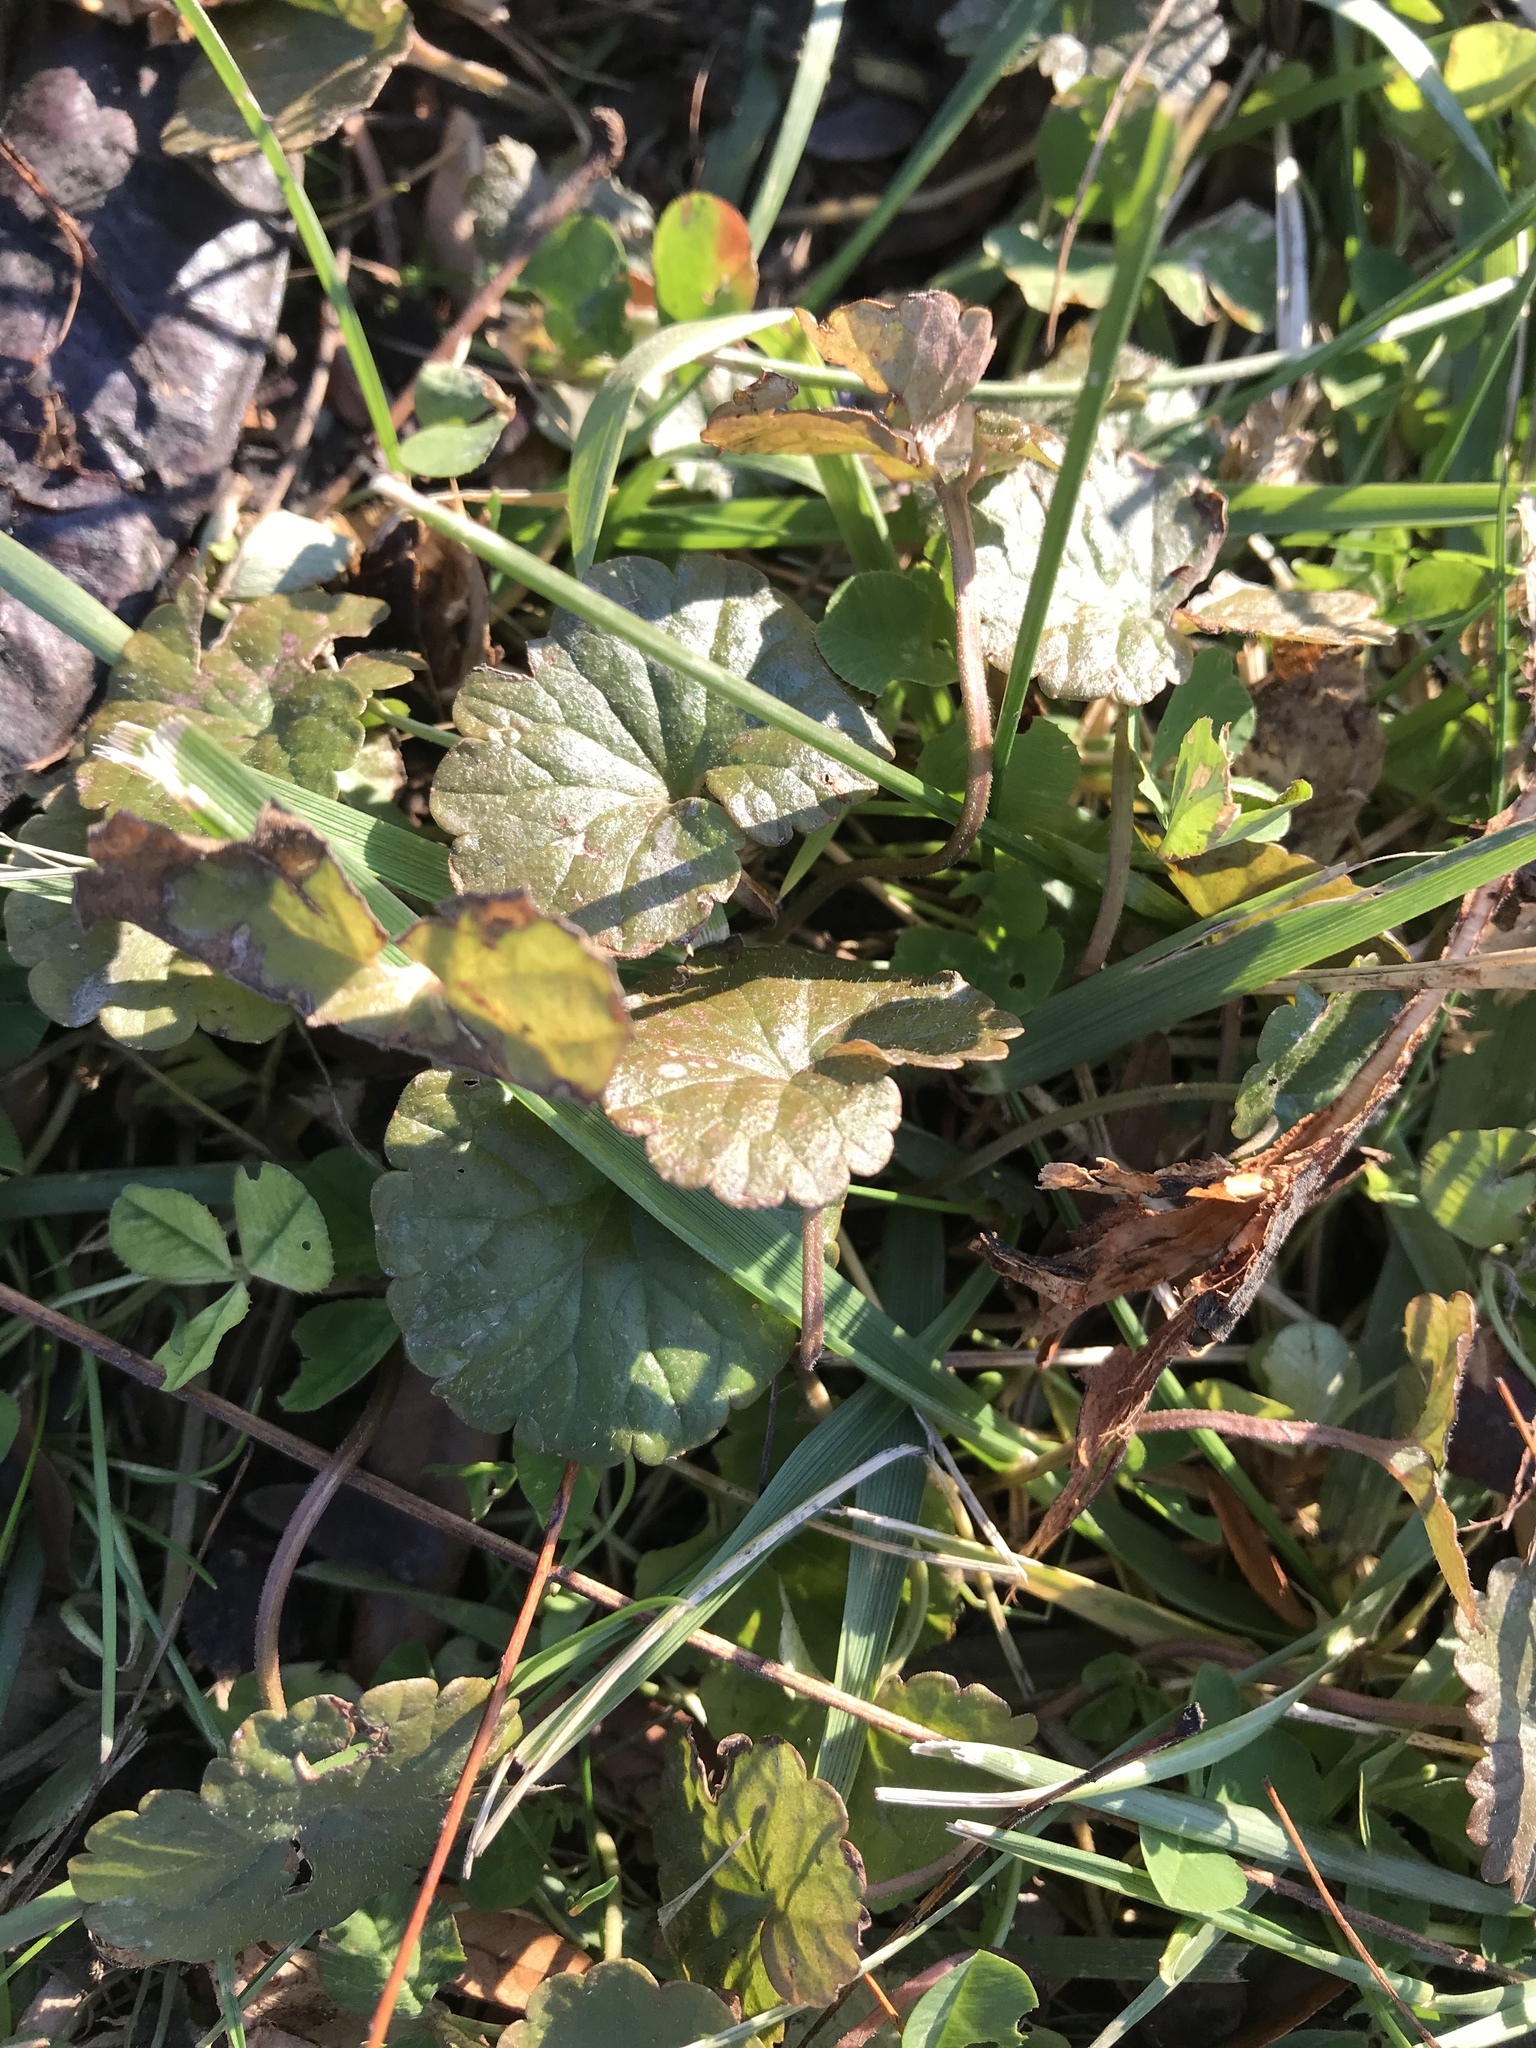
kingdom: Plantae
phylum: Tracheophyta
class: Magnoliopsida
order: Lamiales
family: Lamiaceae
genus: Glechoma
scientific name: Glechoma hederacea
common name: Ground ivy
